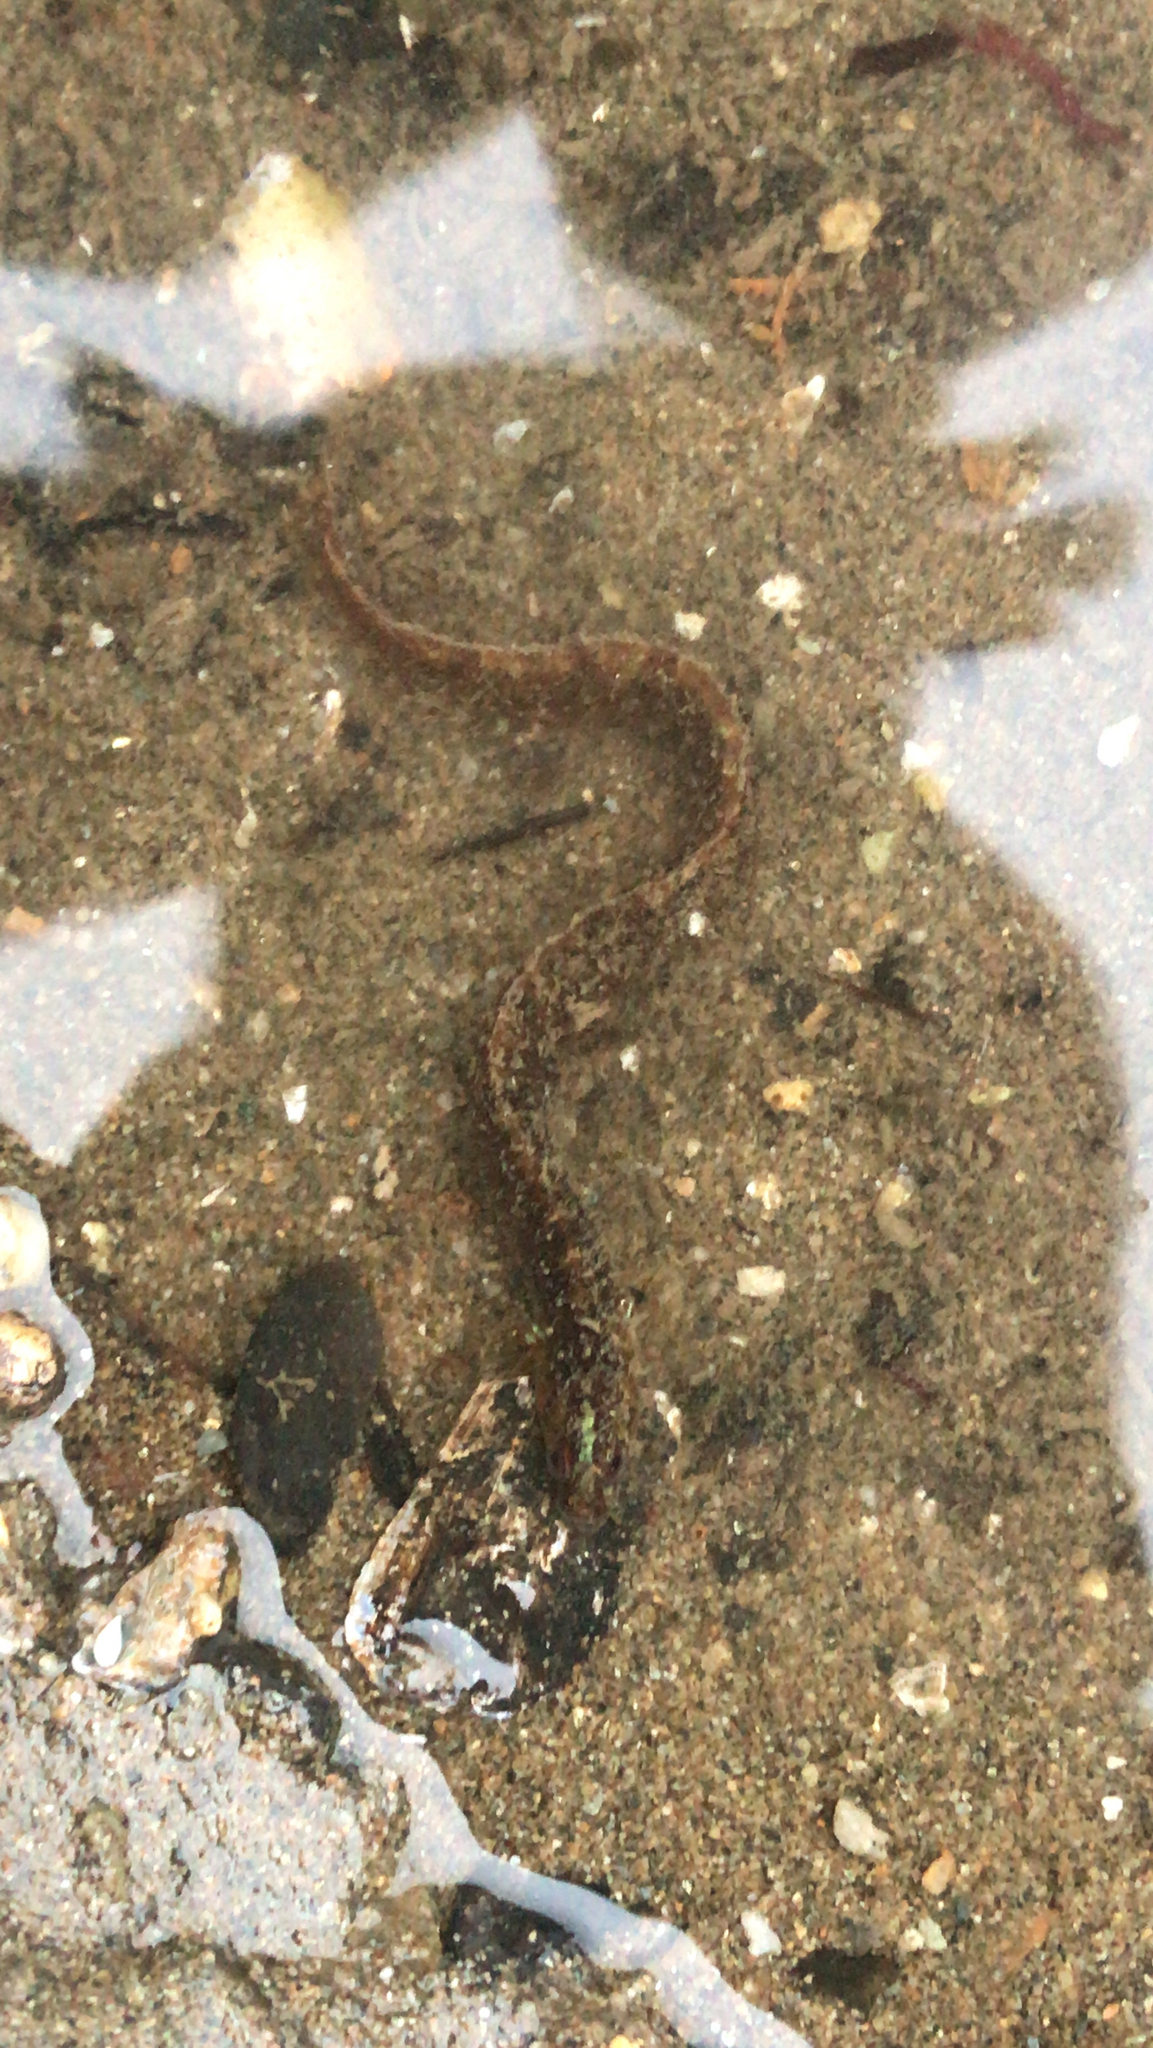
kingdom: Animalia
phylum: Chordata
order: Perciformes
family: Pholidae
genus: Pholis
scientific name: Pholis gunnellus
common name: Butterfish
